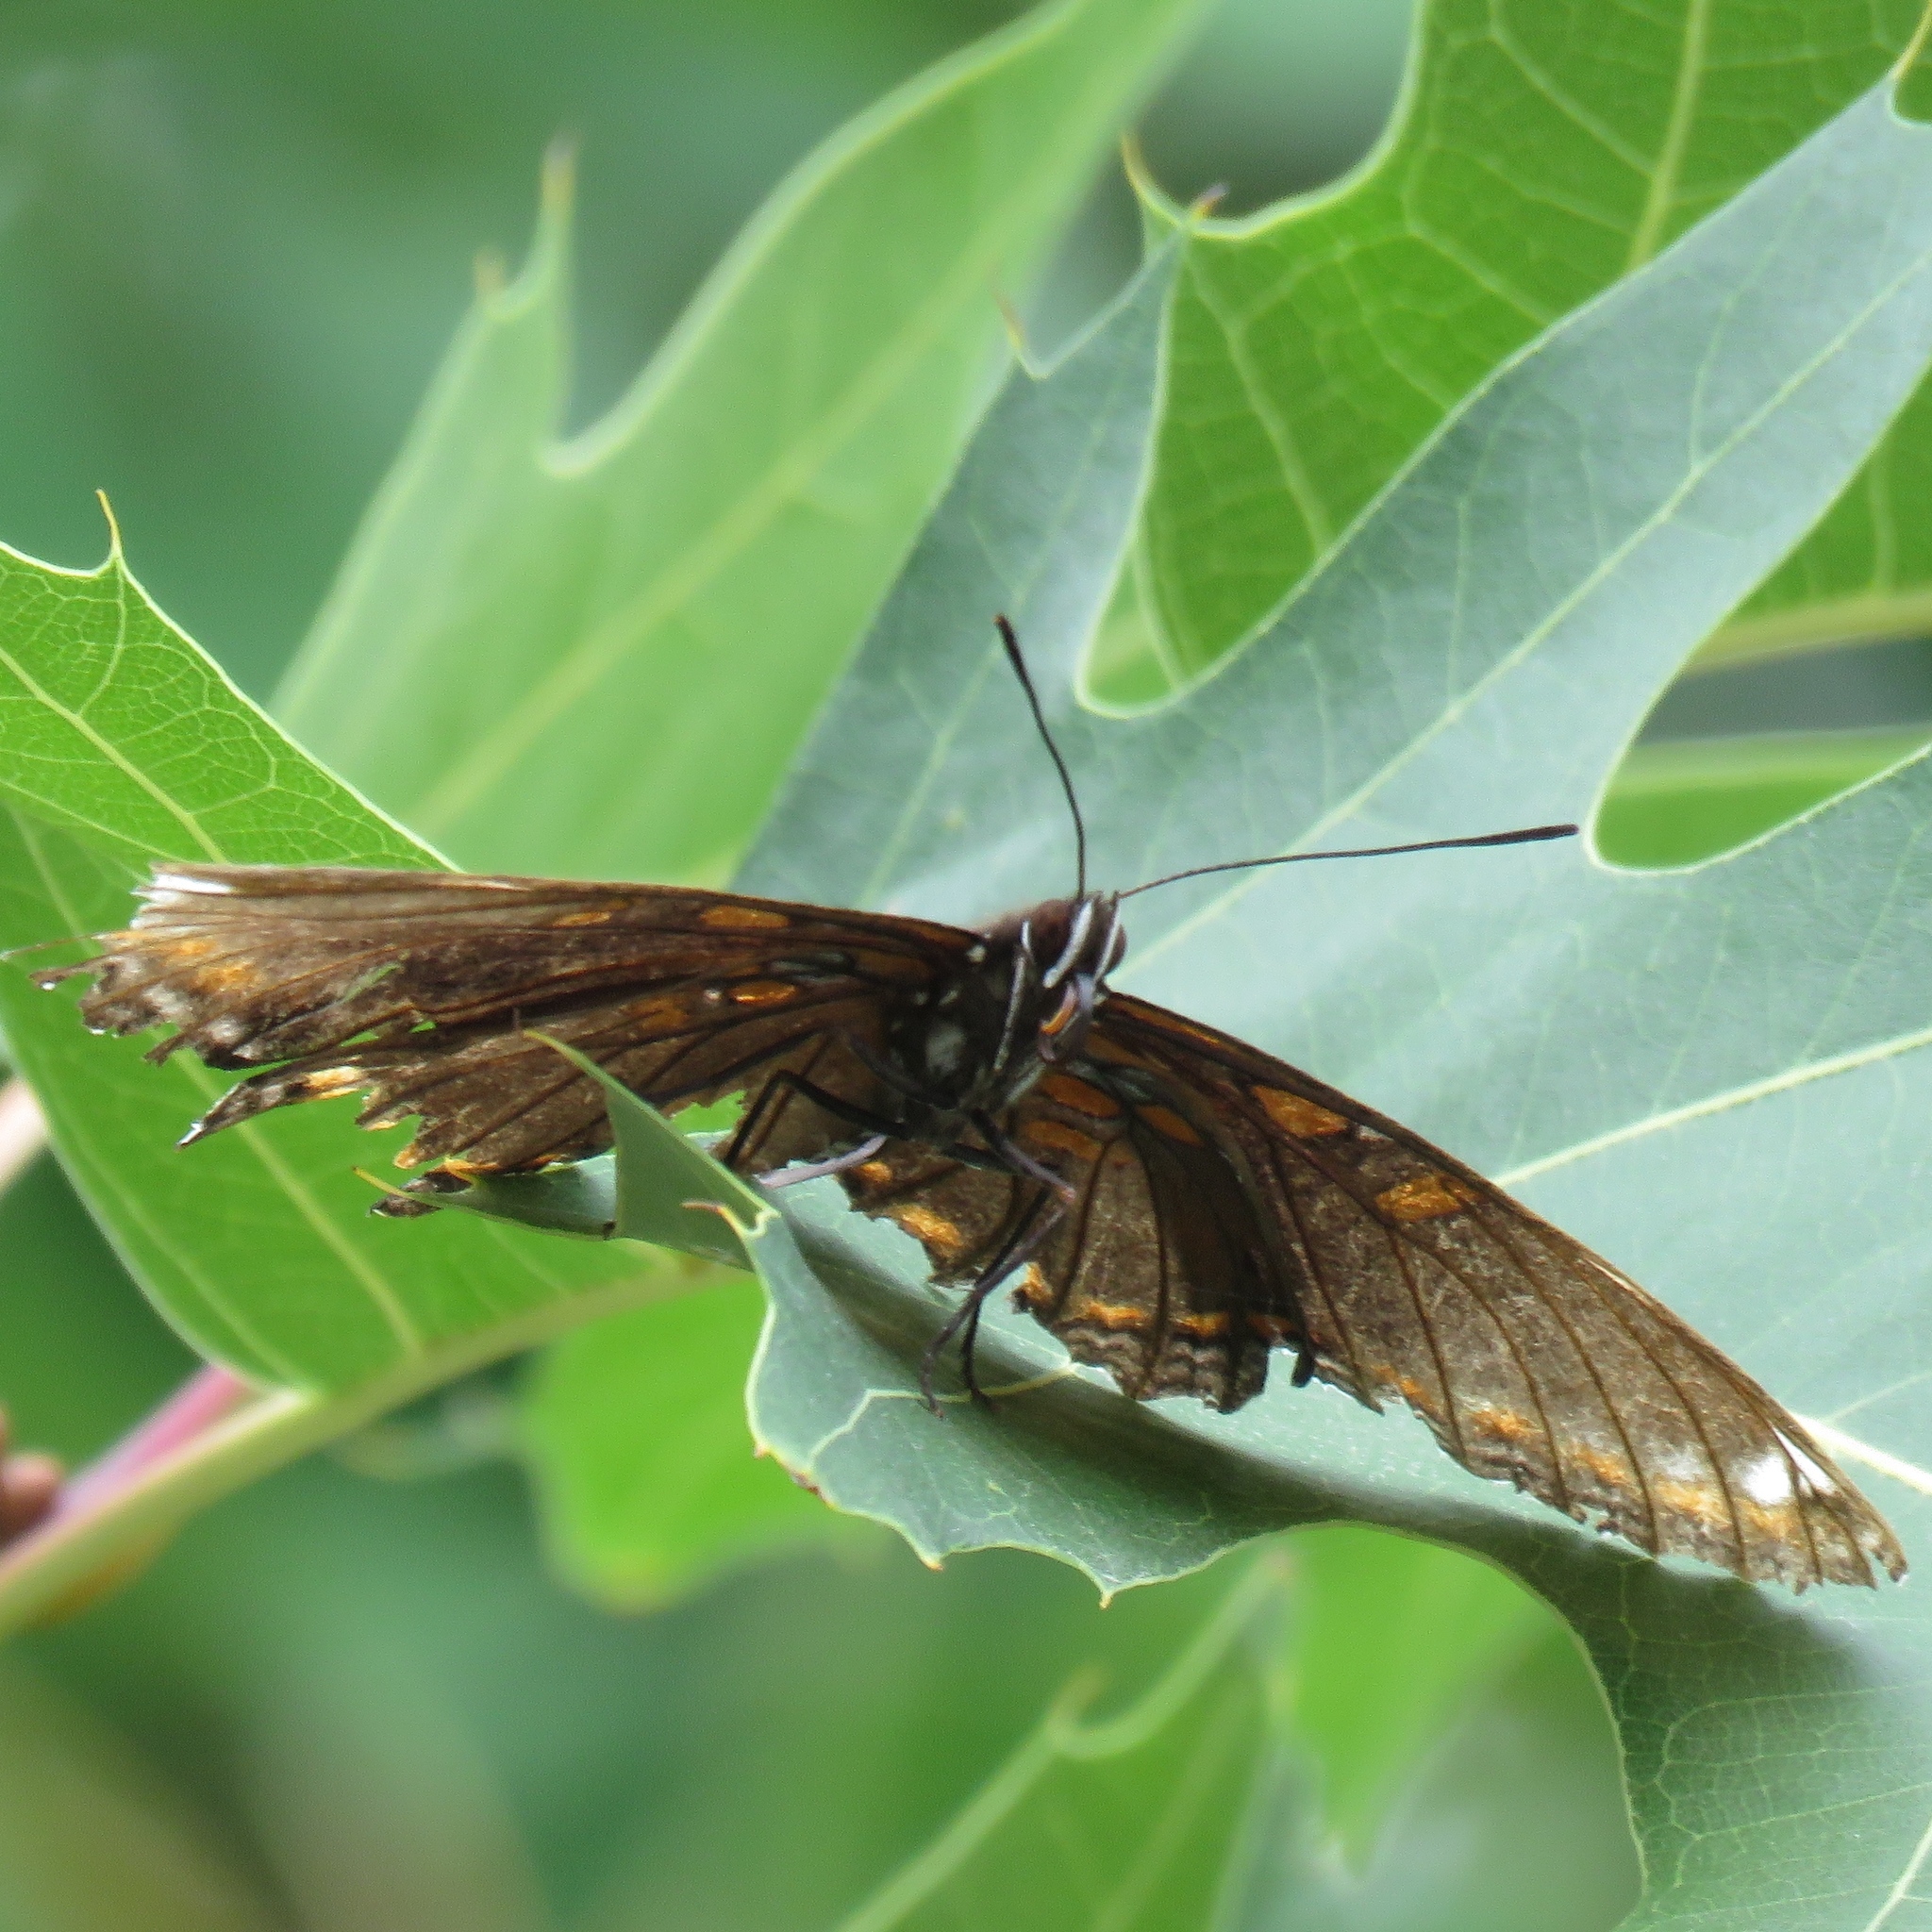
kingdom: Animalia
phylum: Arthropoda
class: Insecta
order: Lepidoptera
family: Nymphalidae
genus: Limenitis
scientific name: Limenitis astyanax
